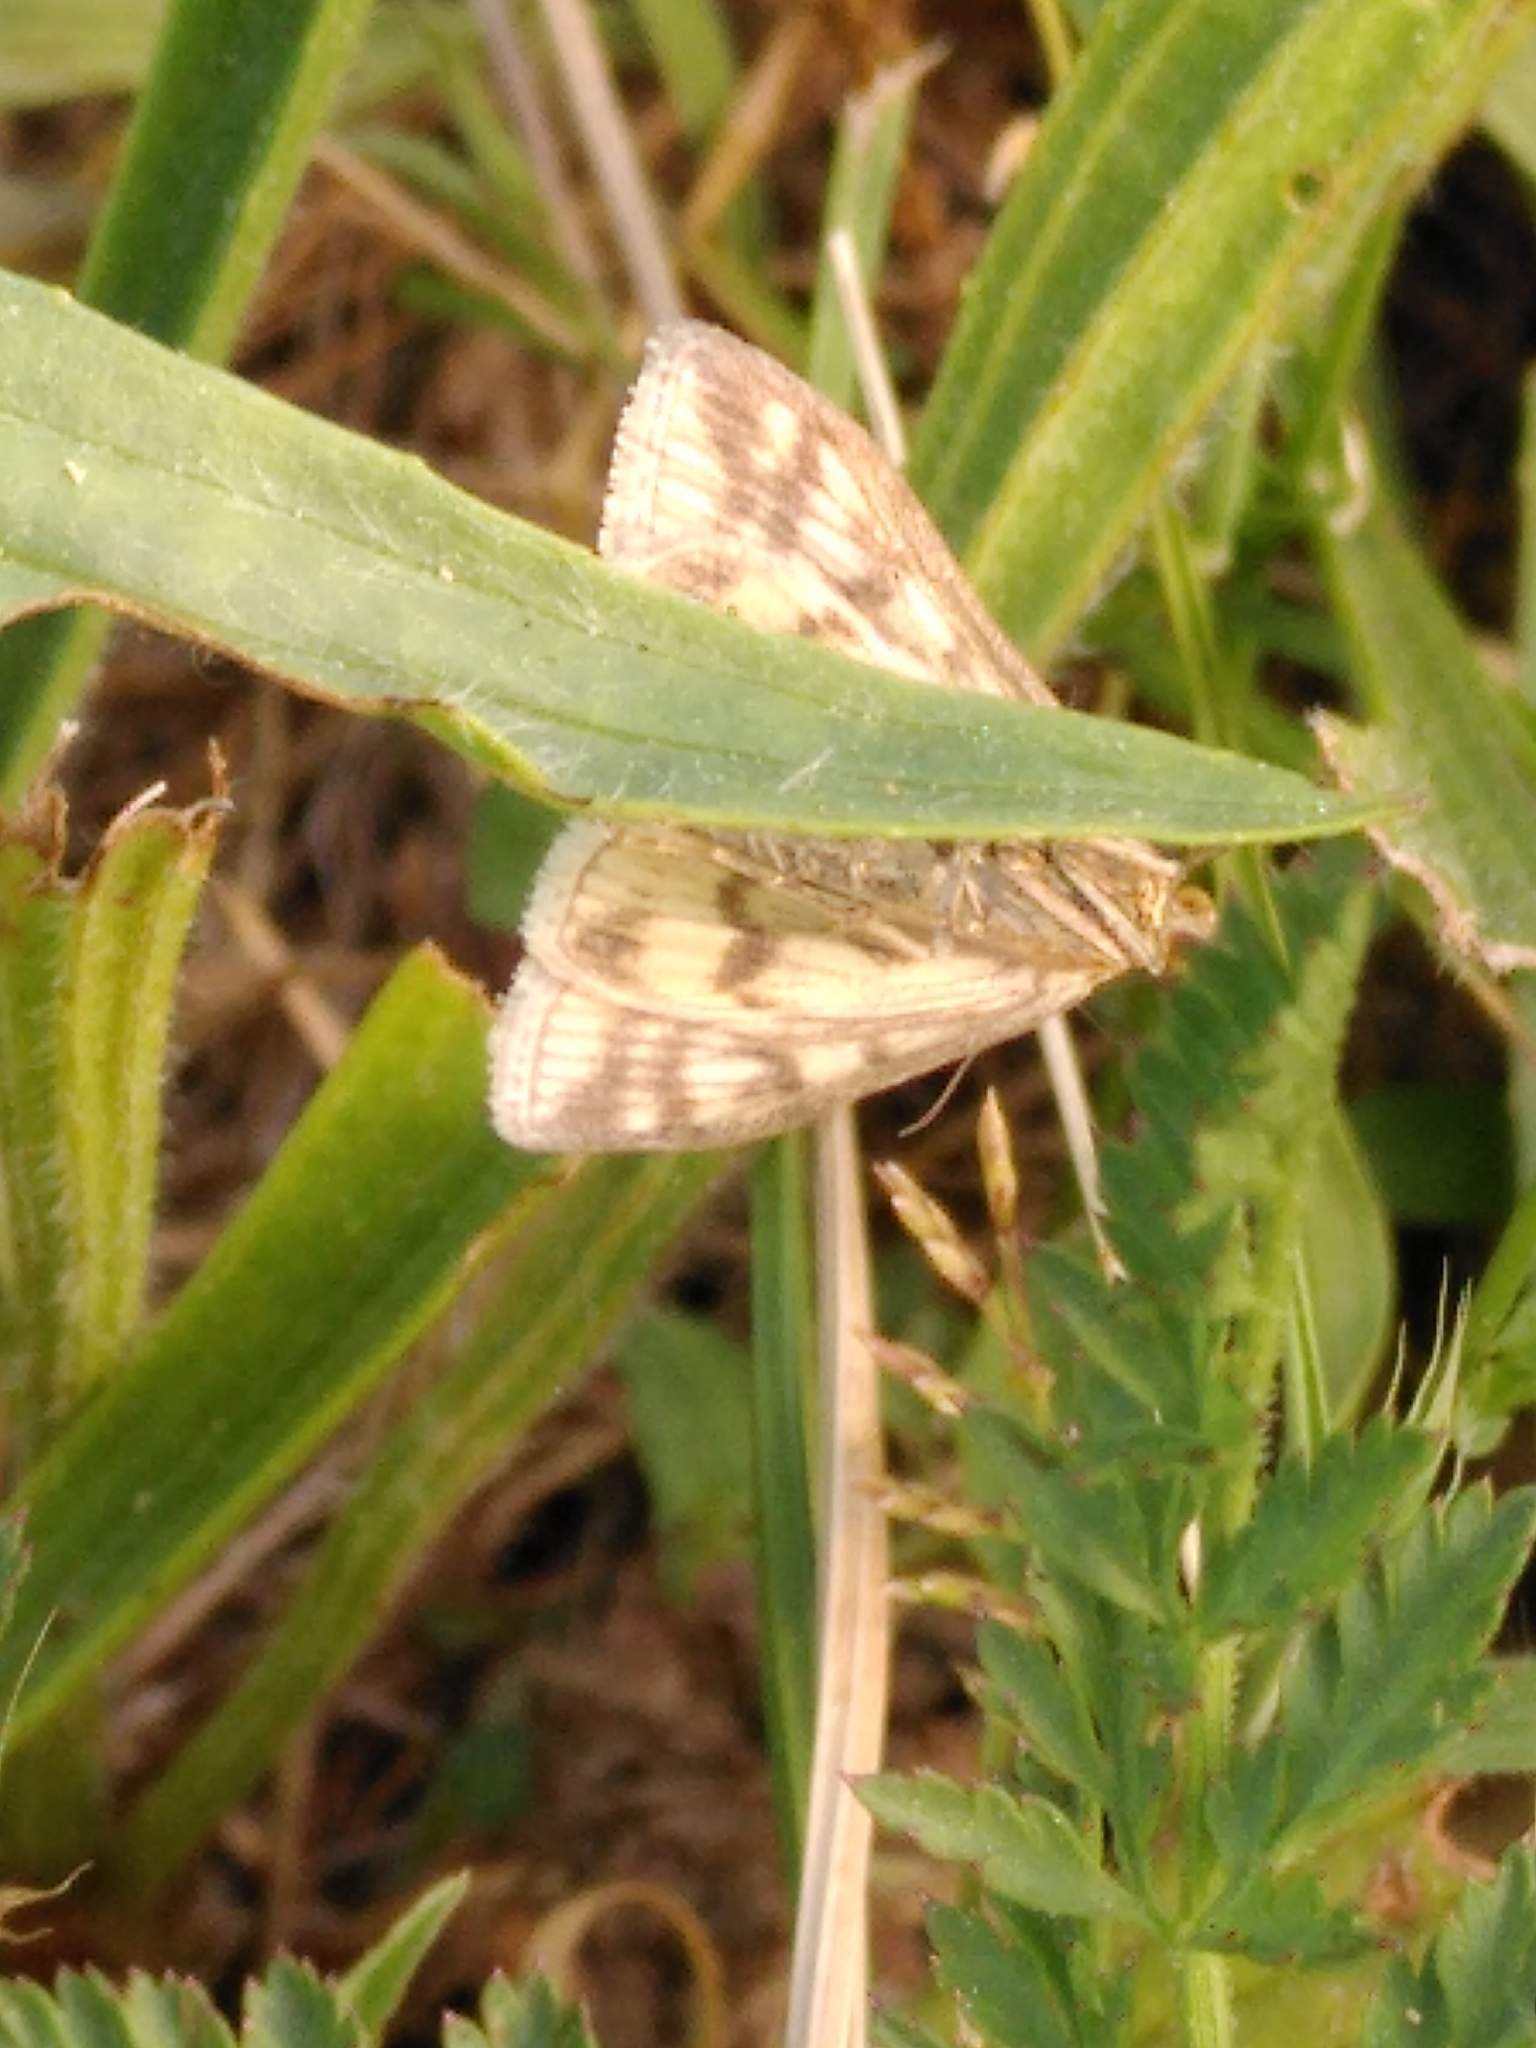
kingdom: Animalia
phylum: Arthropoda
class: Insecta
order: Lepidoptera
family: Crambidae
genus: Sitochroa
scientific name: Sitochroa verticalis
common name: Lesser pearl
